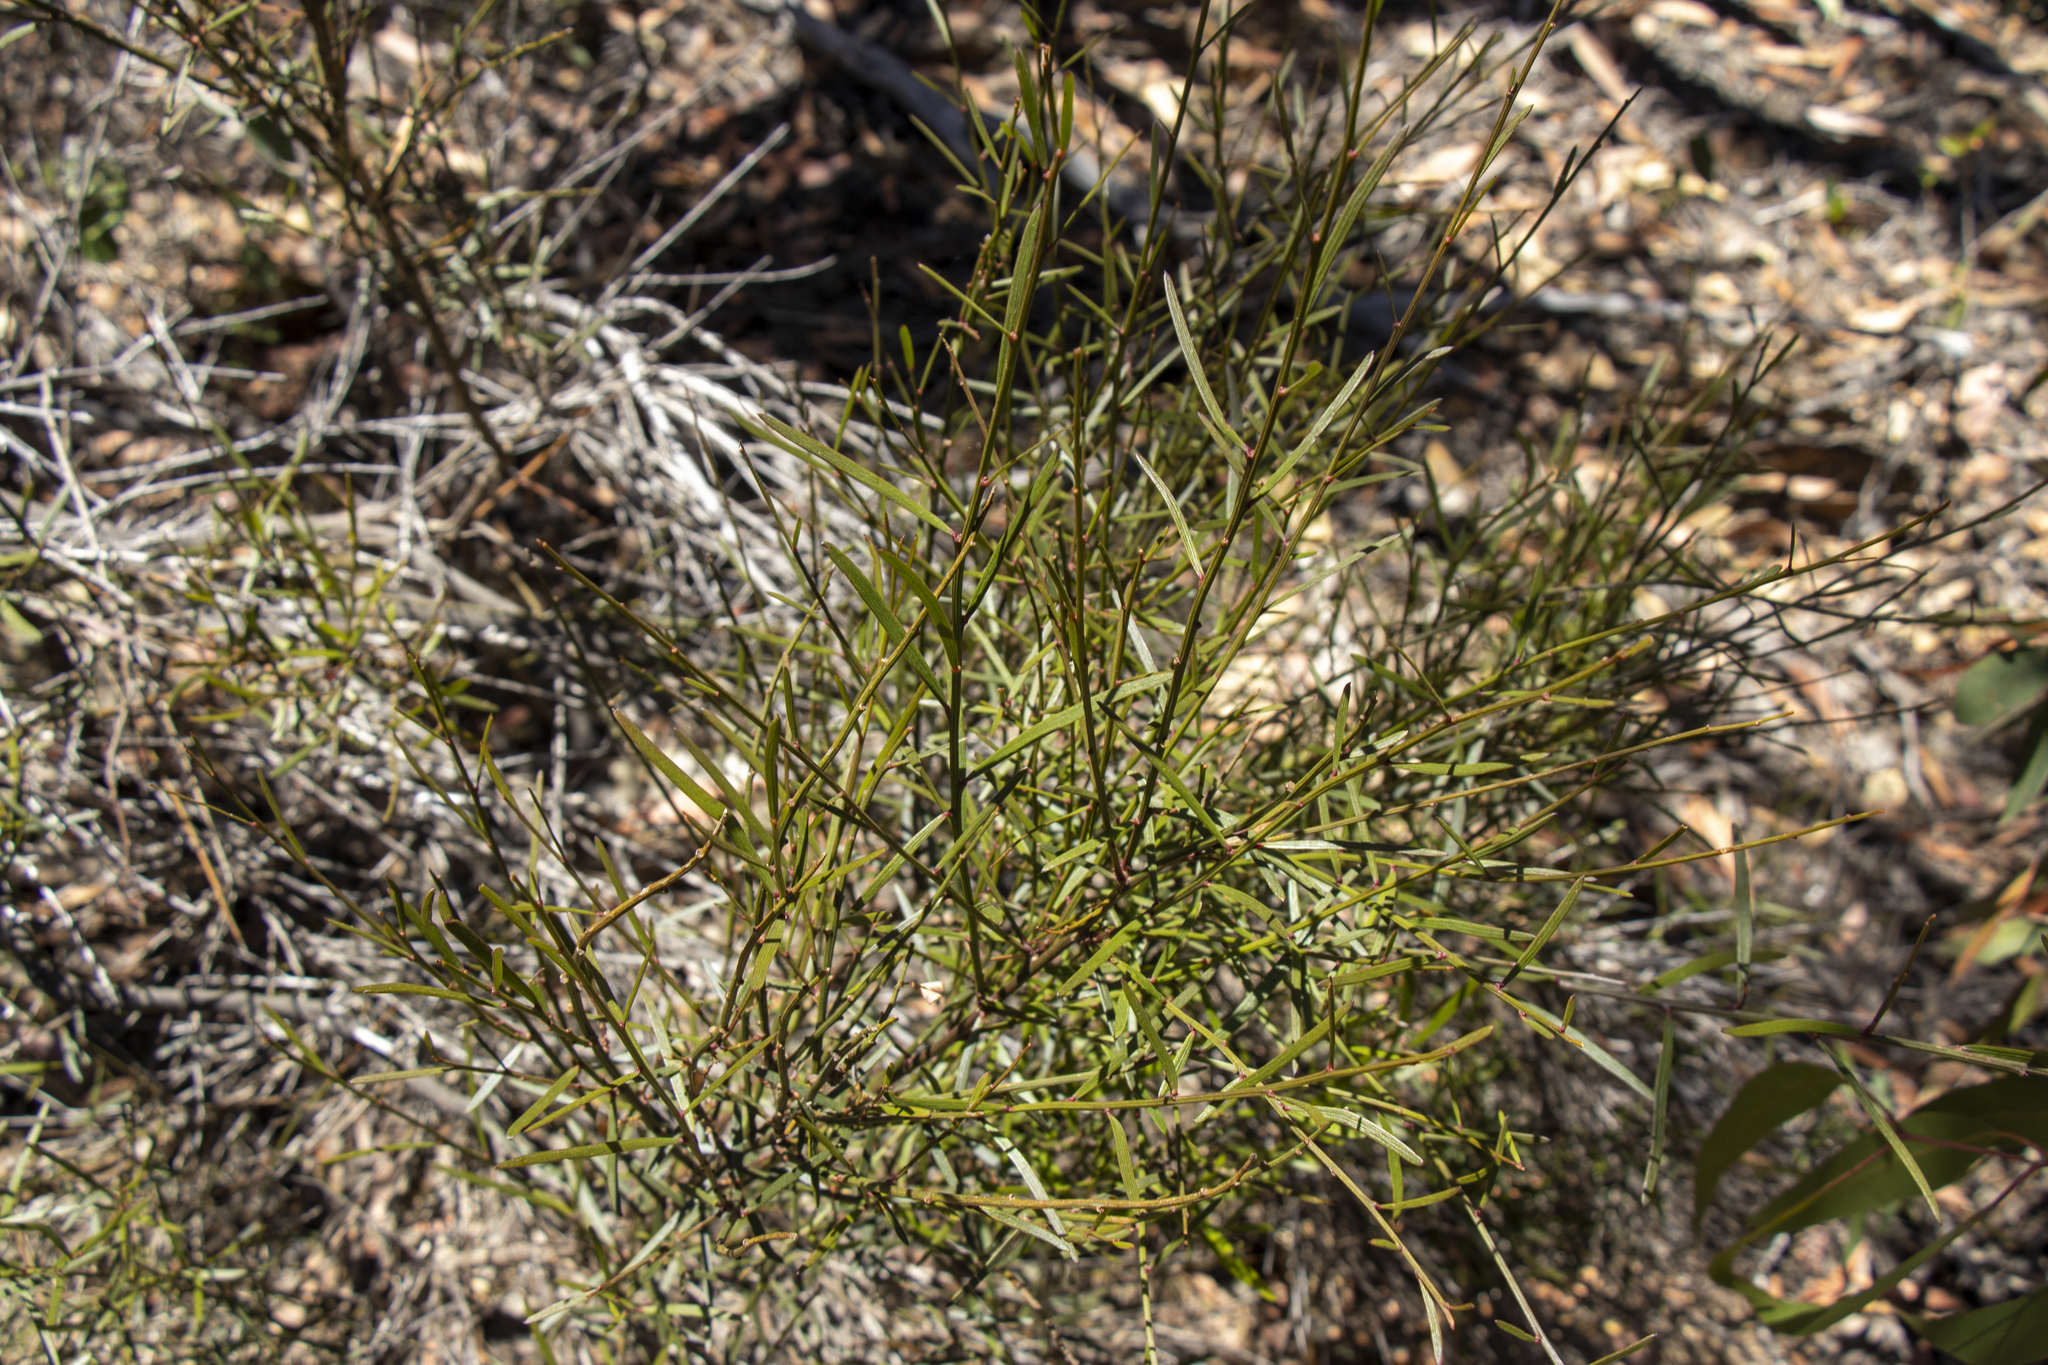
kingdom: Plantae
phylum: Tracheophyta
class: Magnoliopsida
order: Fabales
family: Fabaceae
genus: Daviesia
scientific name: Daviesia leptophylla
